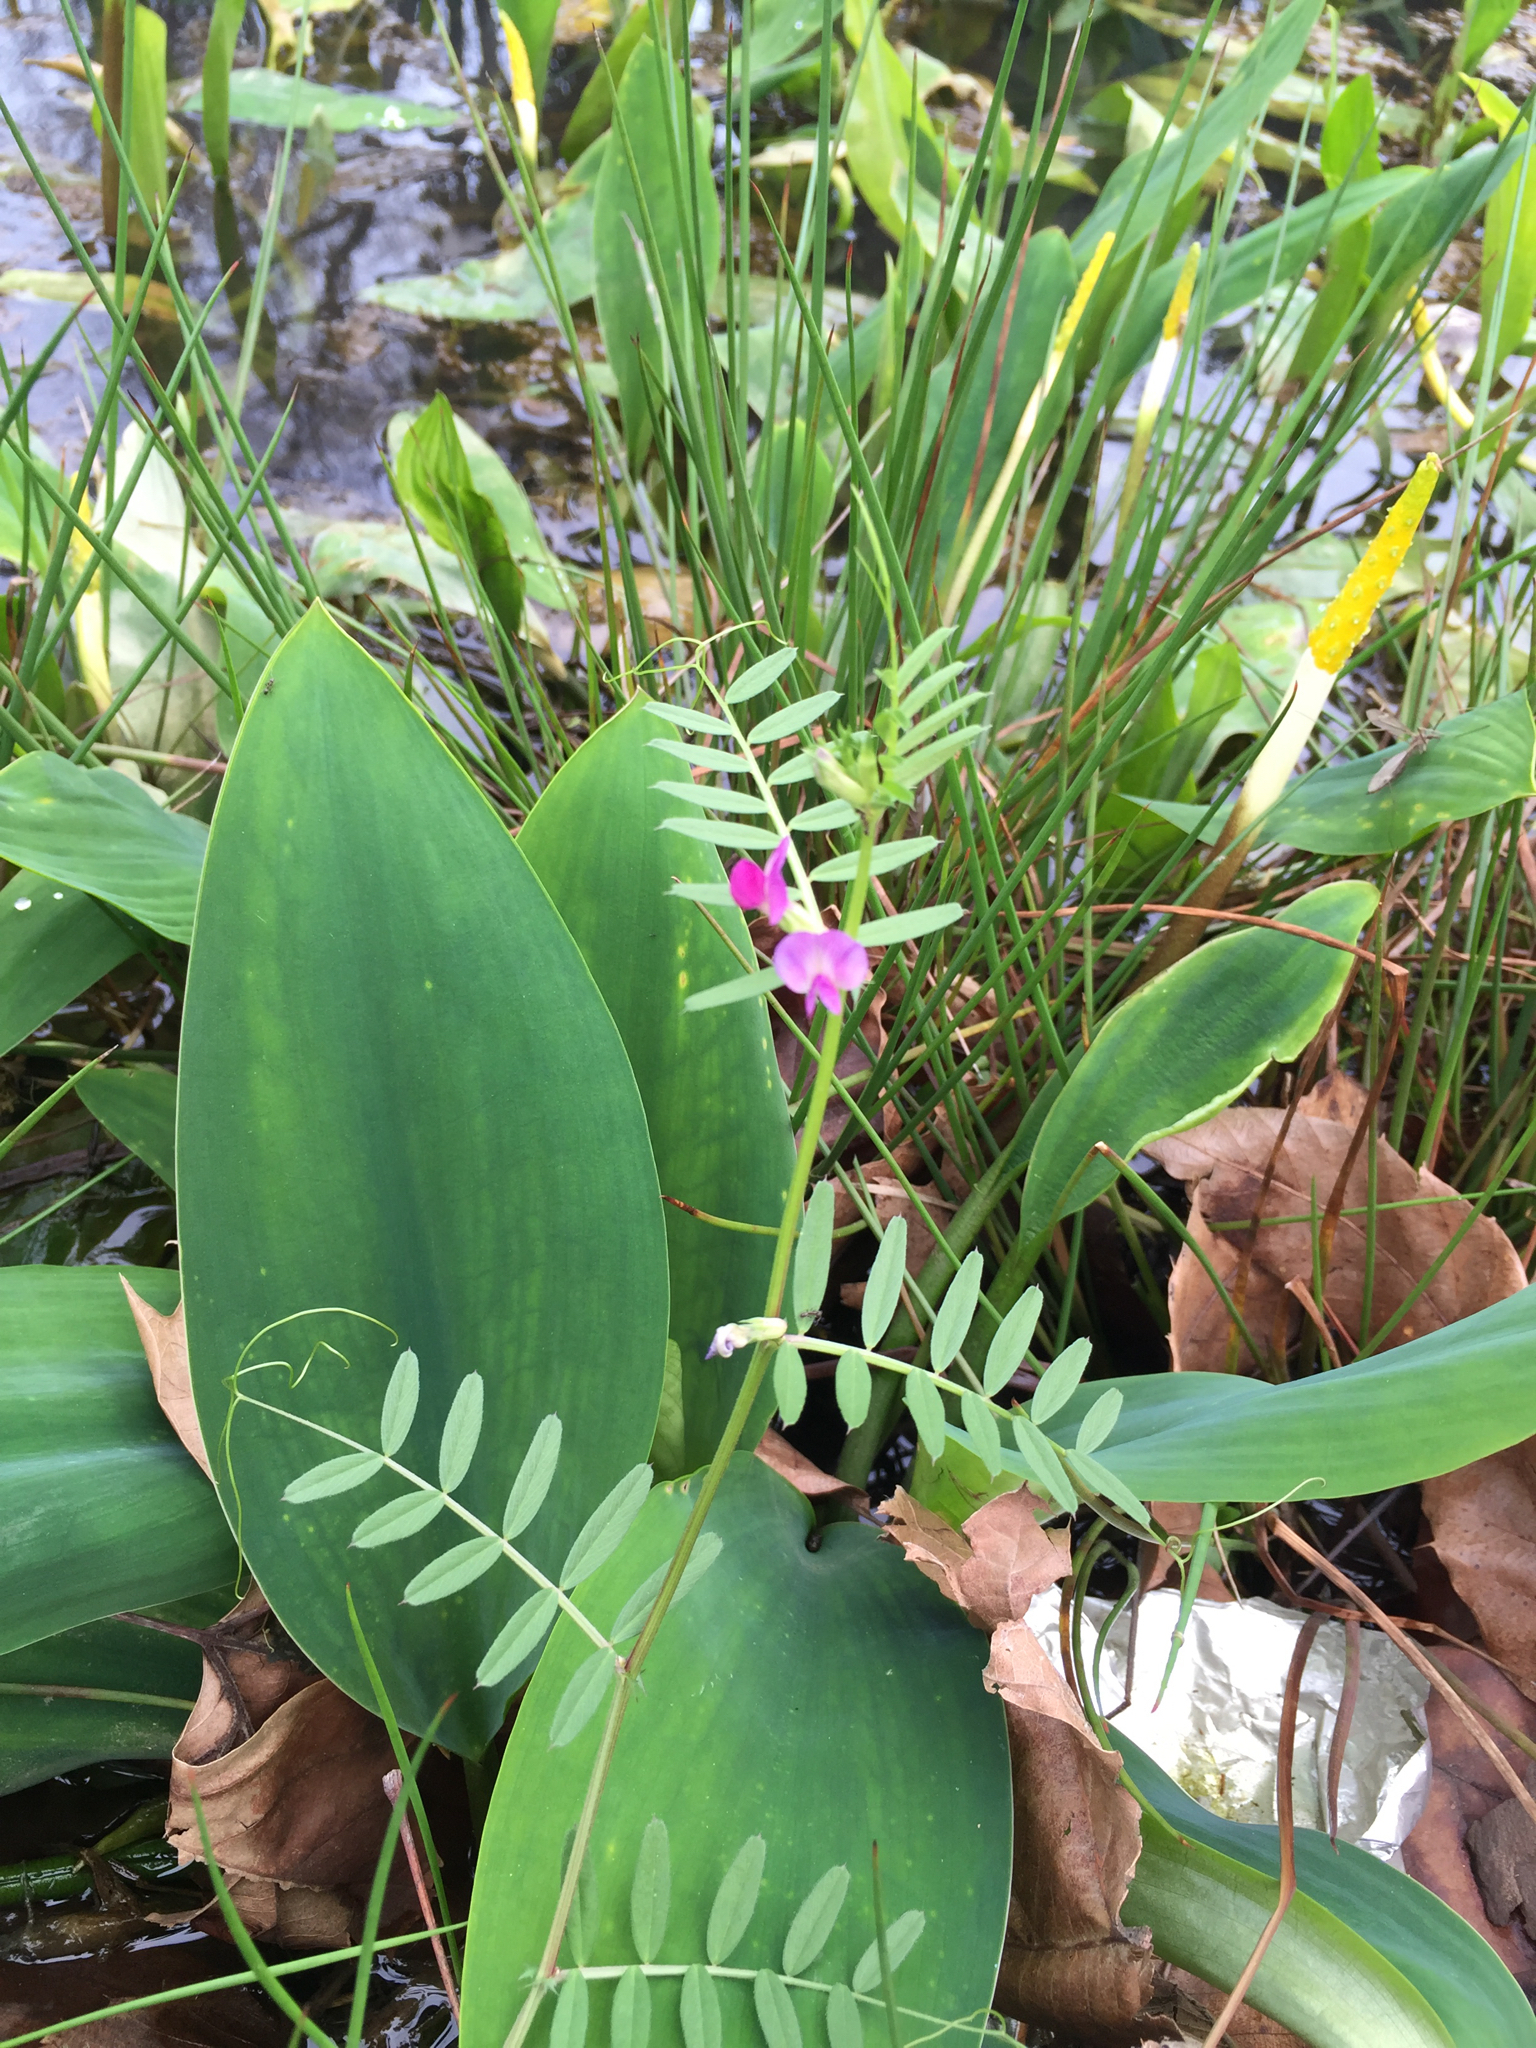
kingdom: Plantae
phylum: Tracheophyta
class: Magnoliopsida
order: Fabales
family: Fabaceae
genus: Vicia
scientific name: Vicia sativa
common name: Garden vetch
